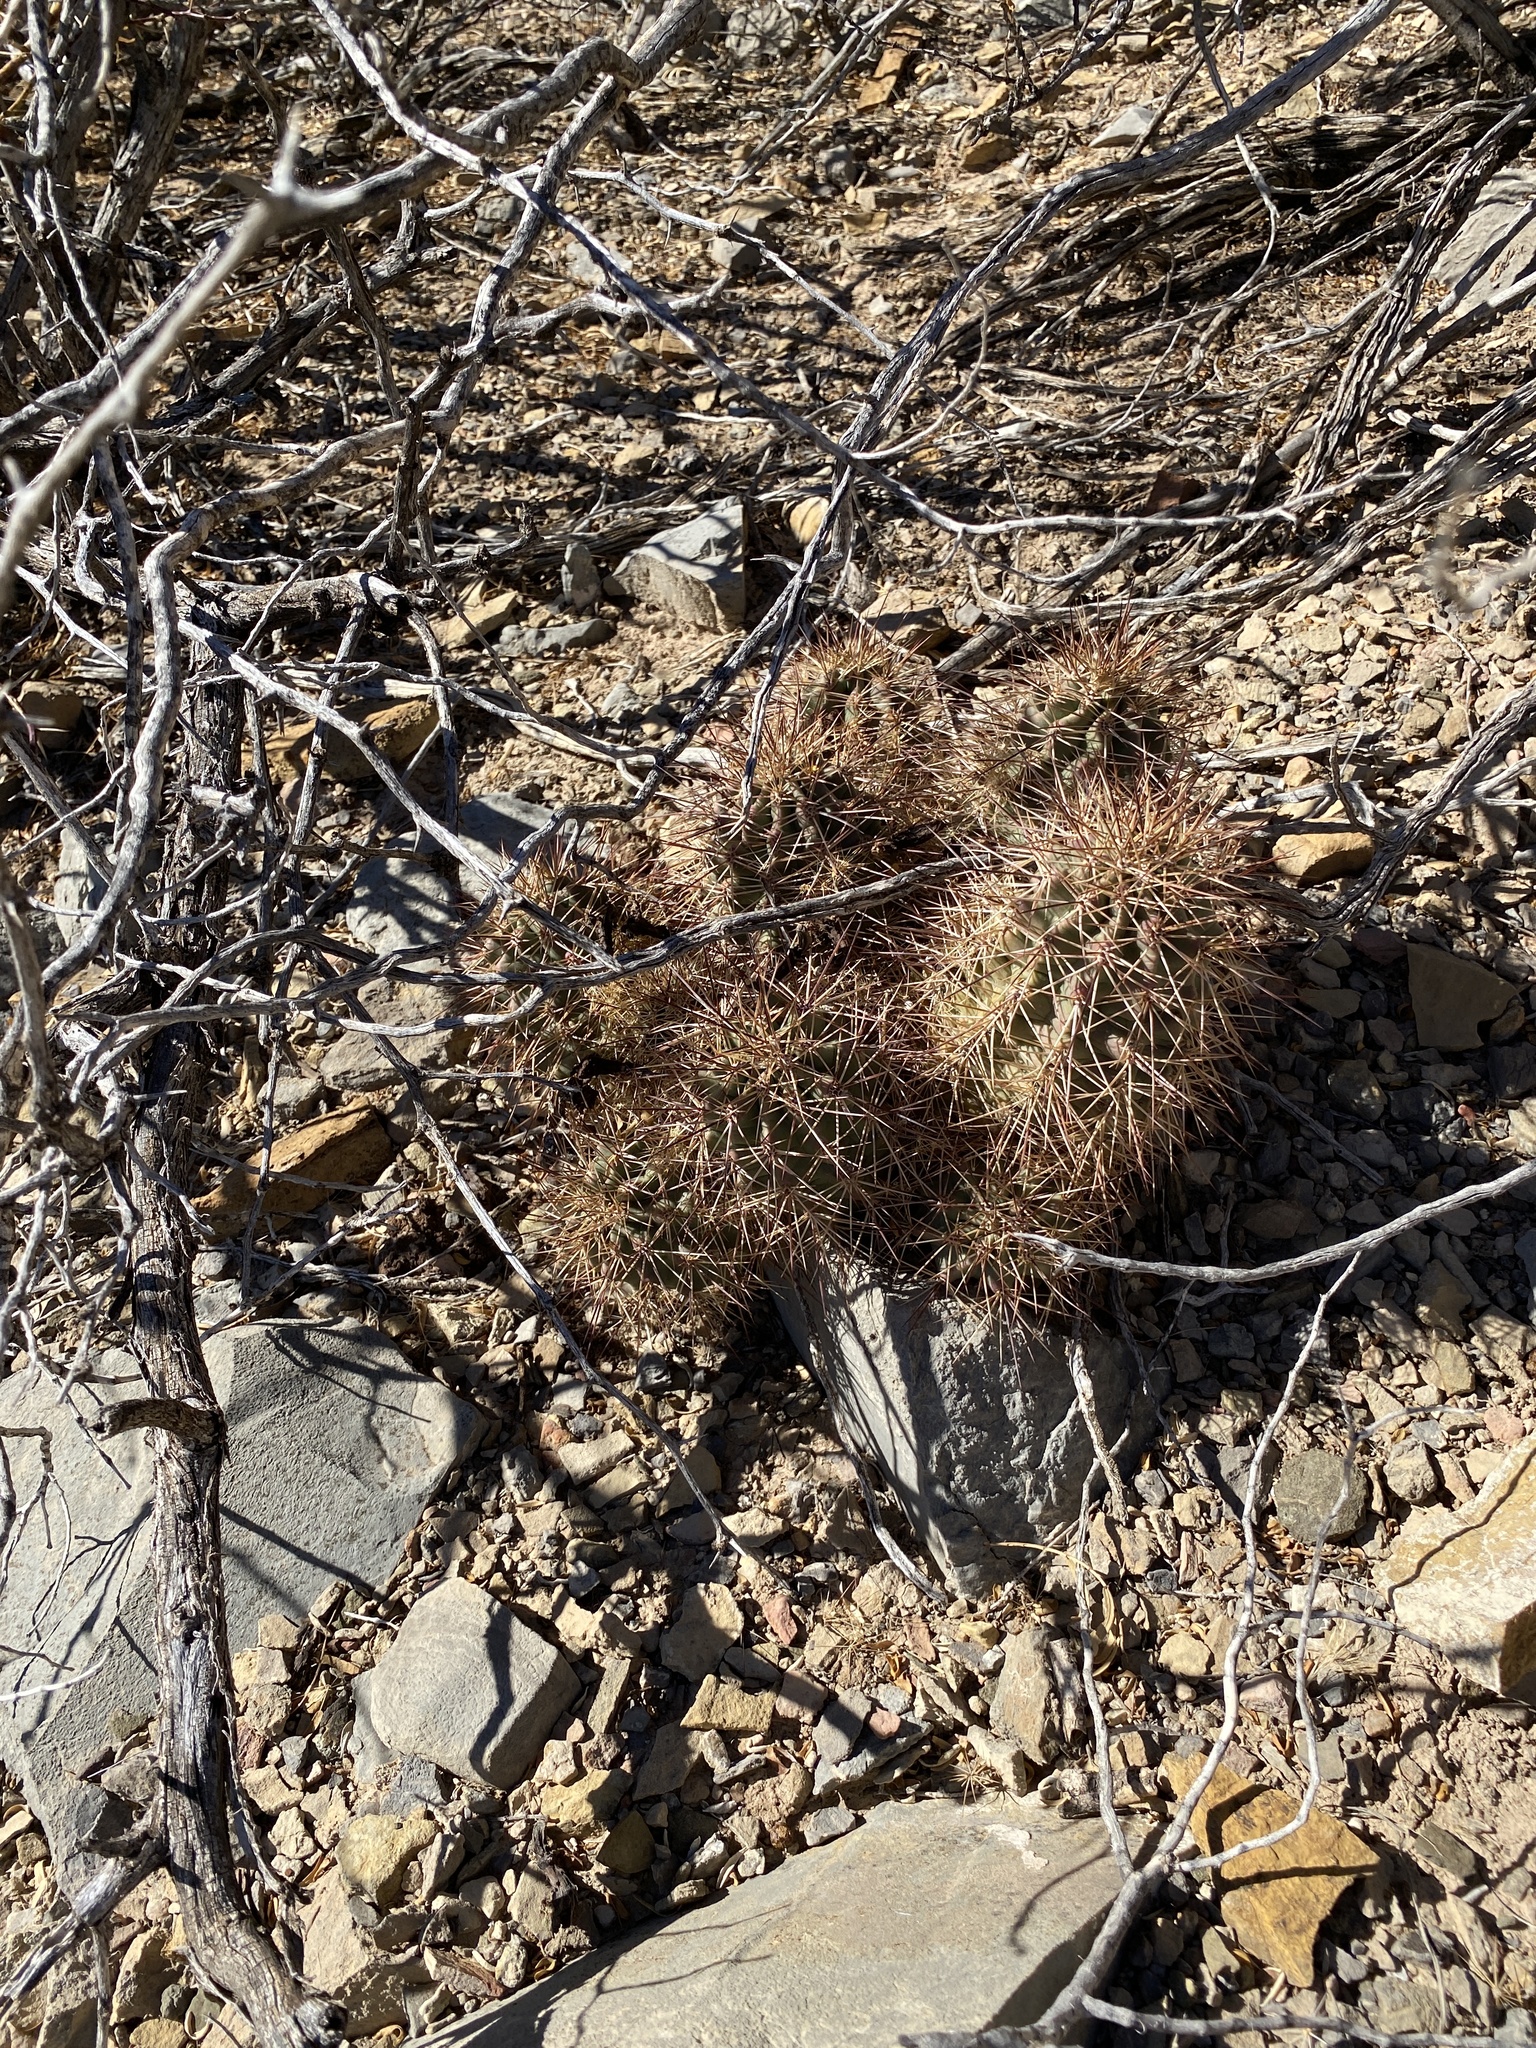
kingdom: Plantae
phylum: Tracheophyta
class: Magnoliopsida
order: Caryophyllales
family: Cactaceae
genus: Echinocereus
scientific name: Echinocereus coccineus
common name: Scarlet hedgehog cactus
